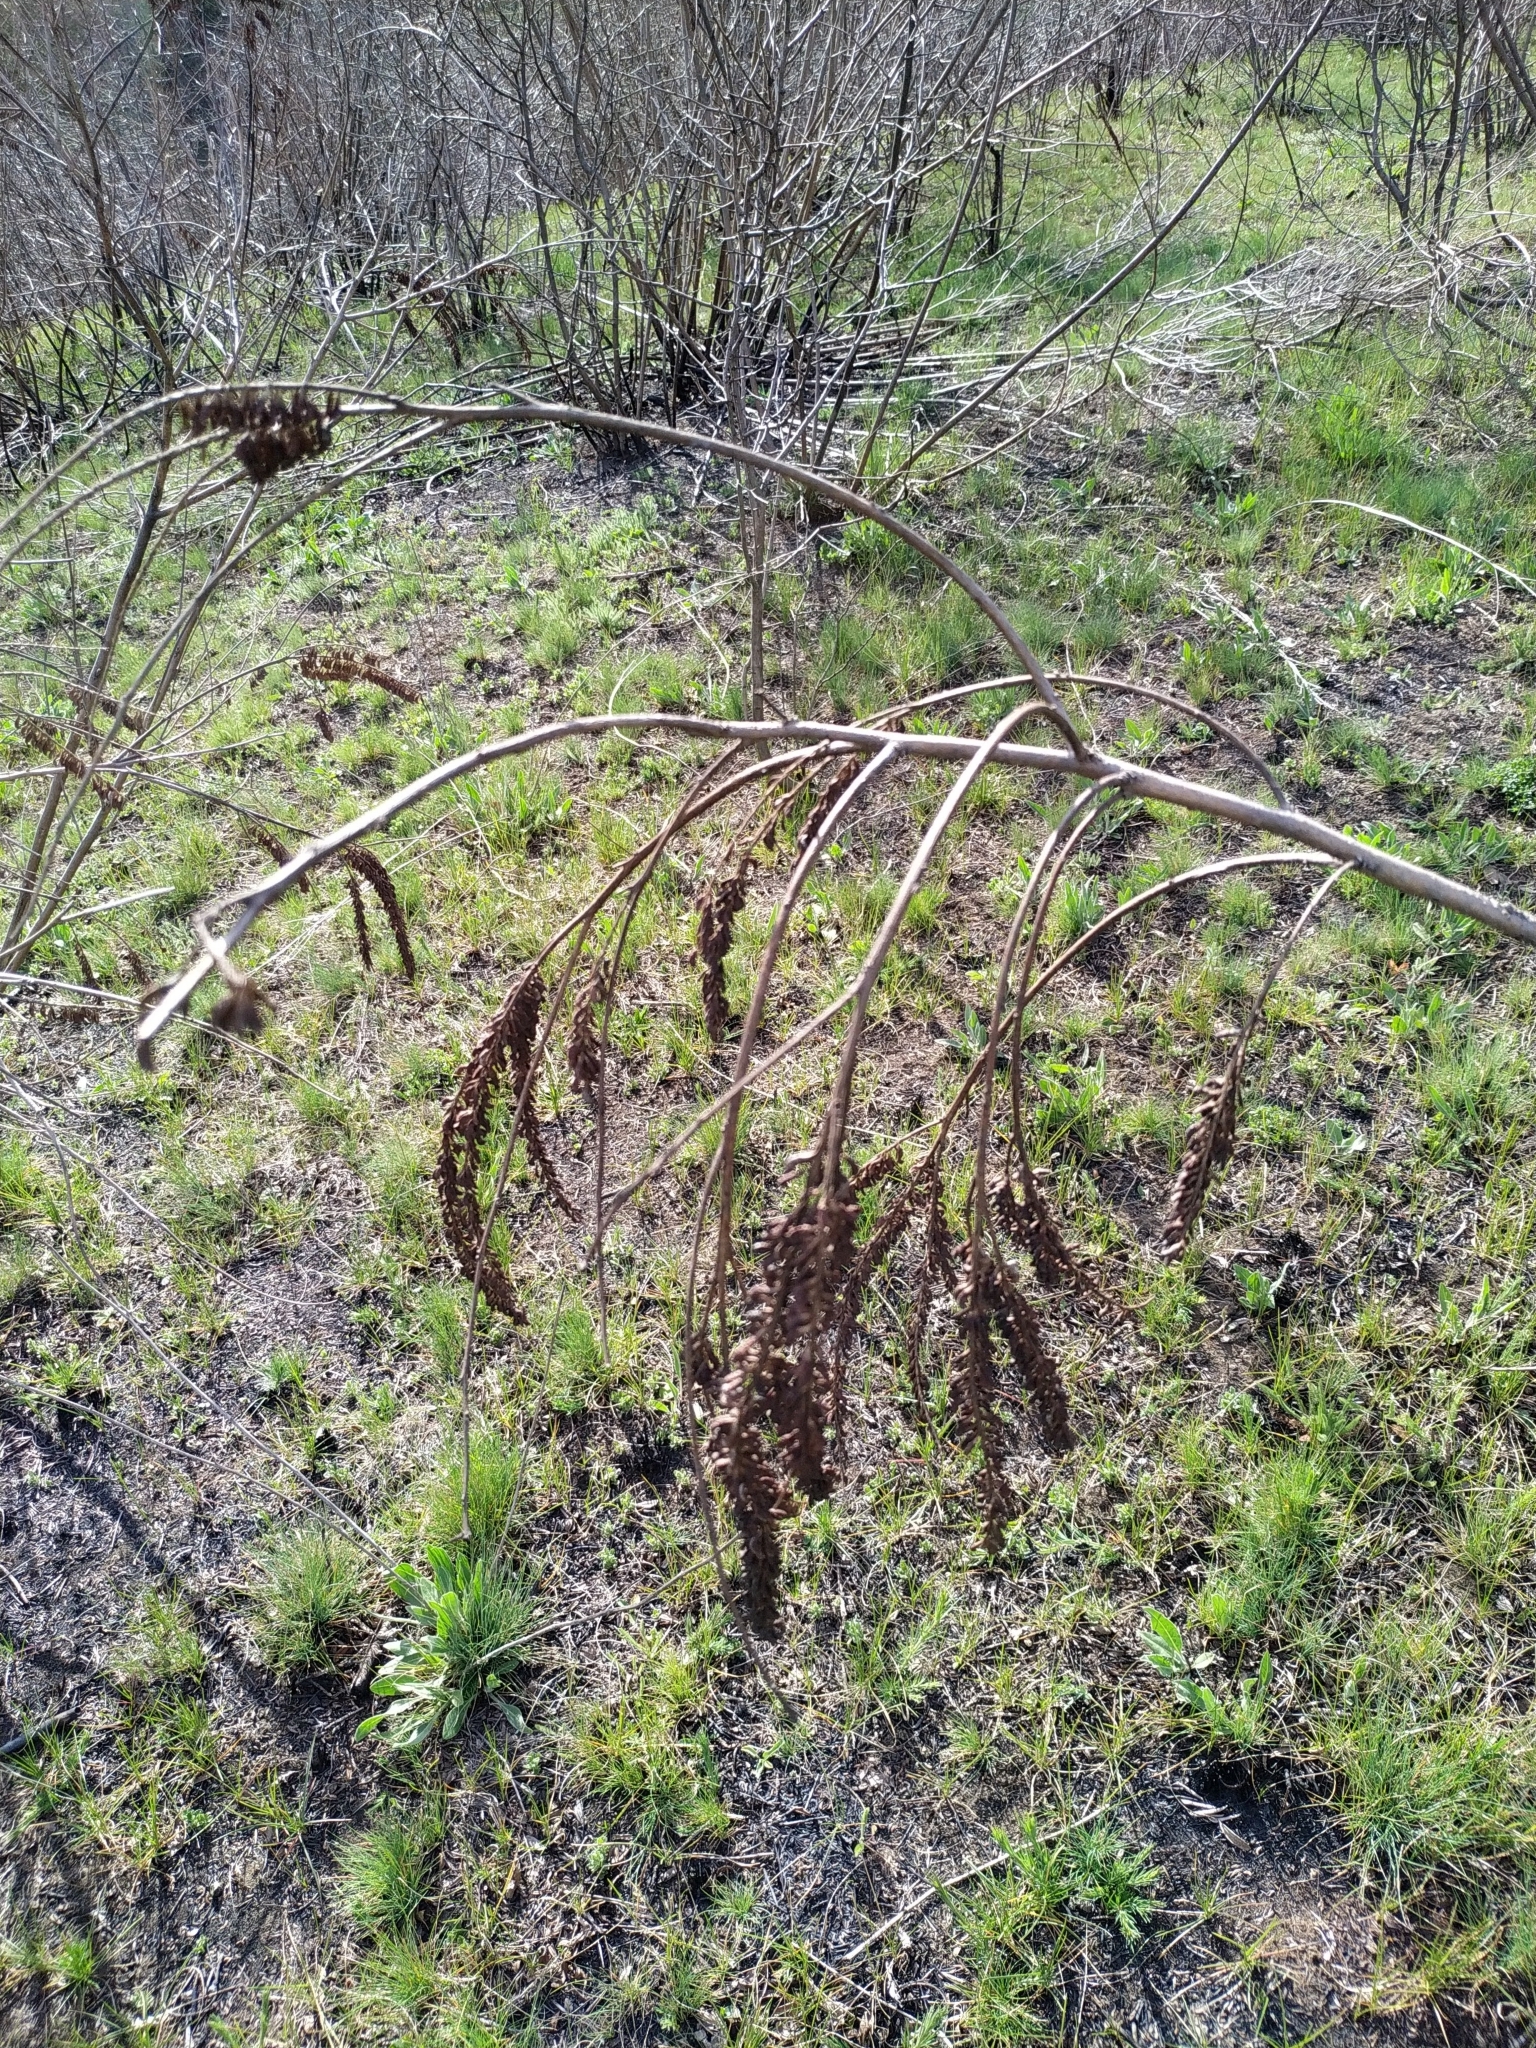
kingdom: Plantae
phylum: Tracheophyta
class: Magnoliopsida
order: Fabales
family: Fabaceae
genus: Amorpha
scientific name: Amorpha fruticosa
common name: False indigo
